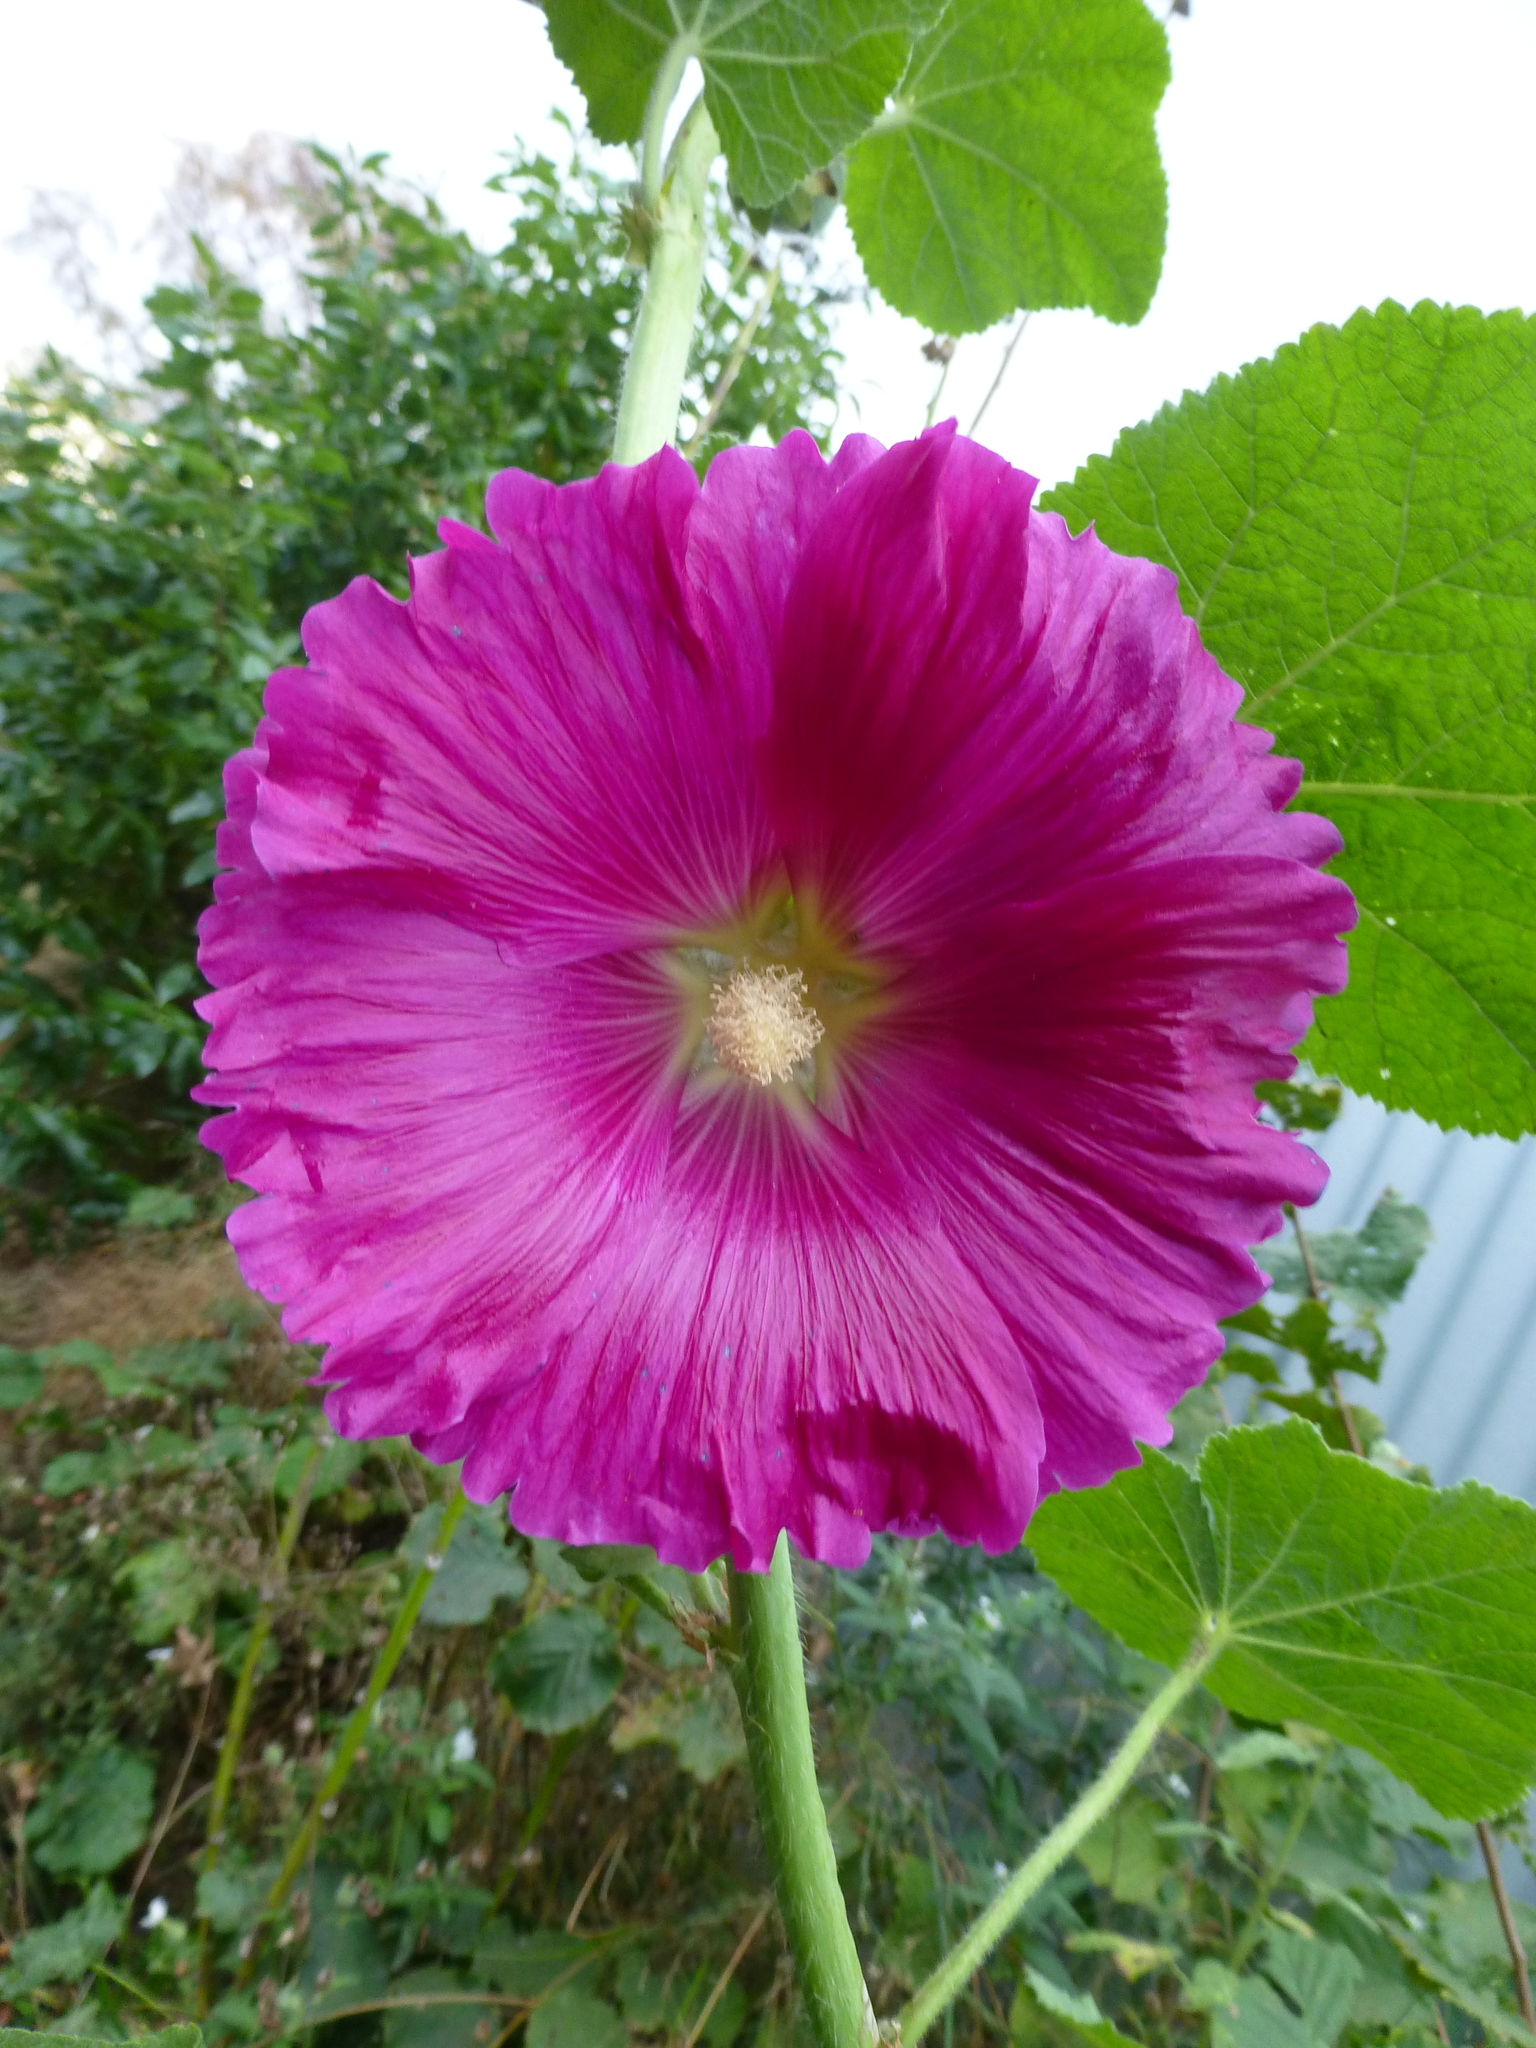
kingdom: Plantae
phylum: Tracheophyta
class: Magnoliopsida
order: Malvales
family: Malvaceae
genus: Alcea
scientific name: Alcea rosea
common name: Hollyhock
